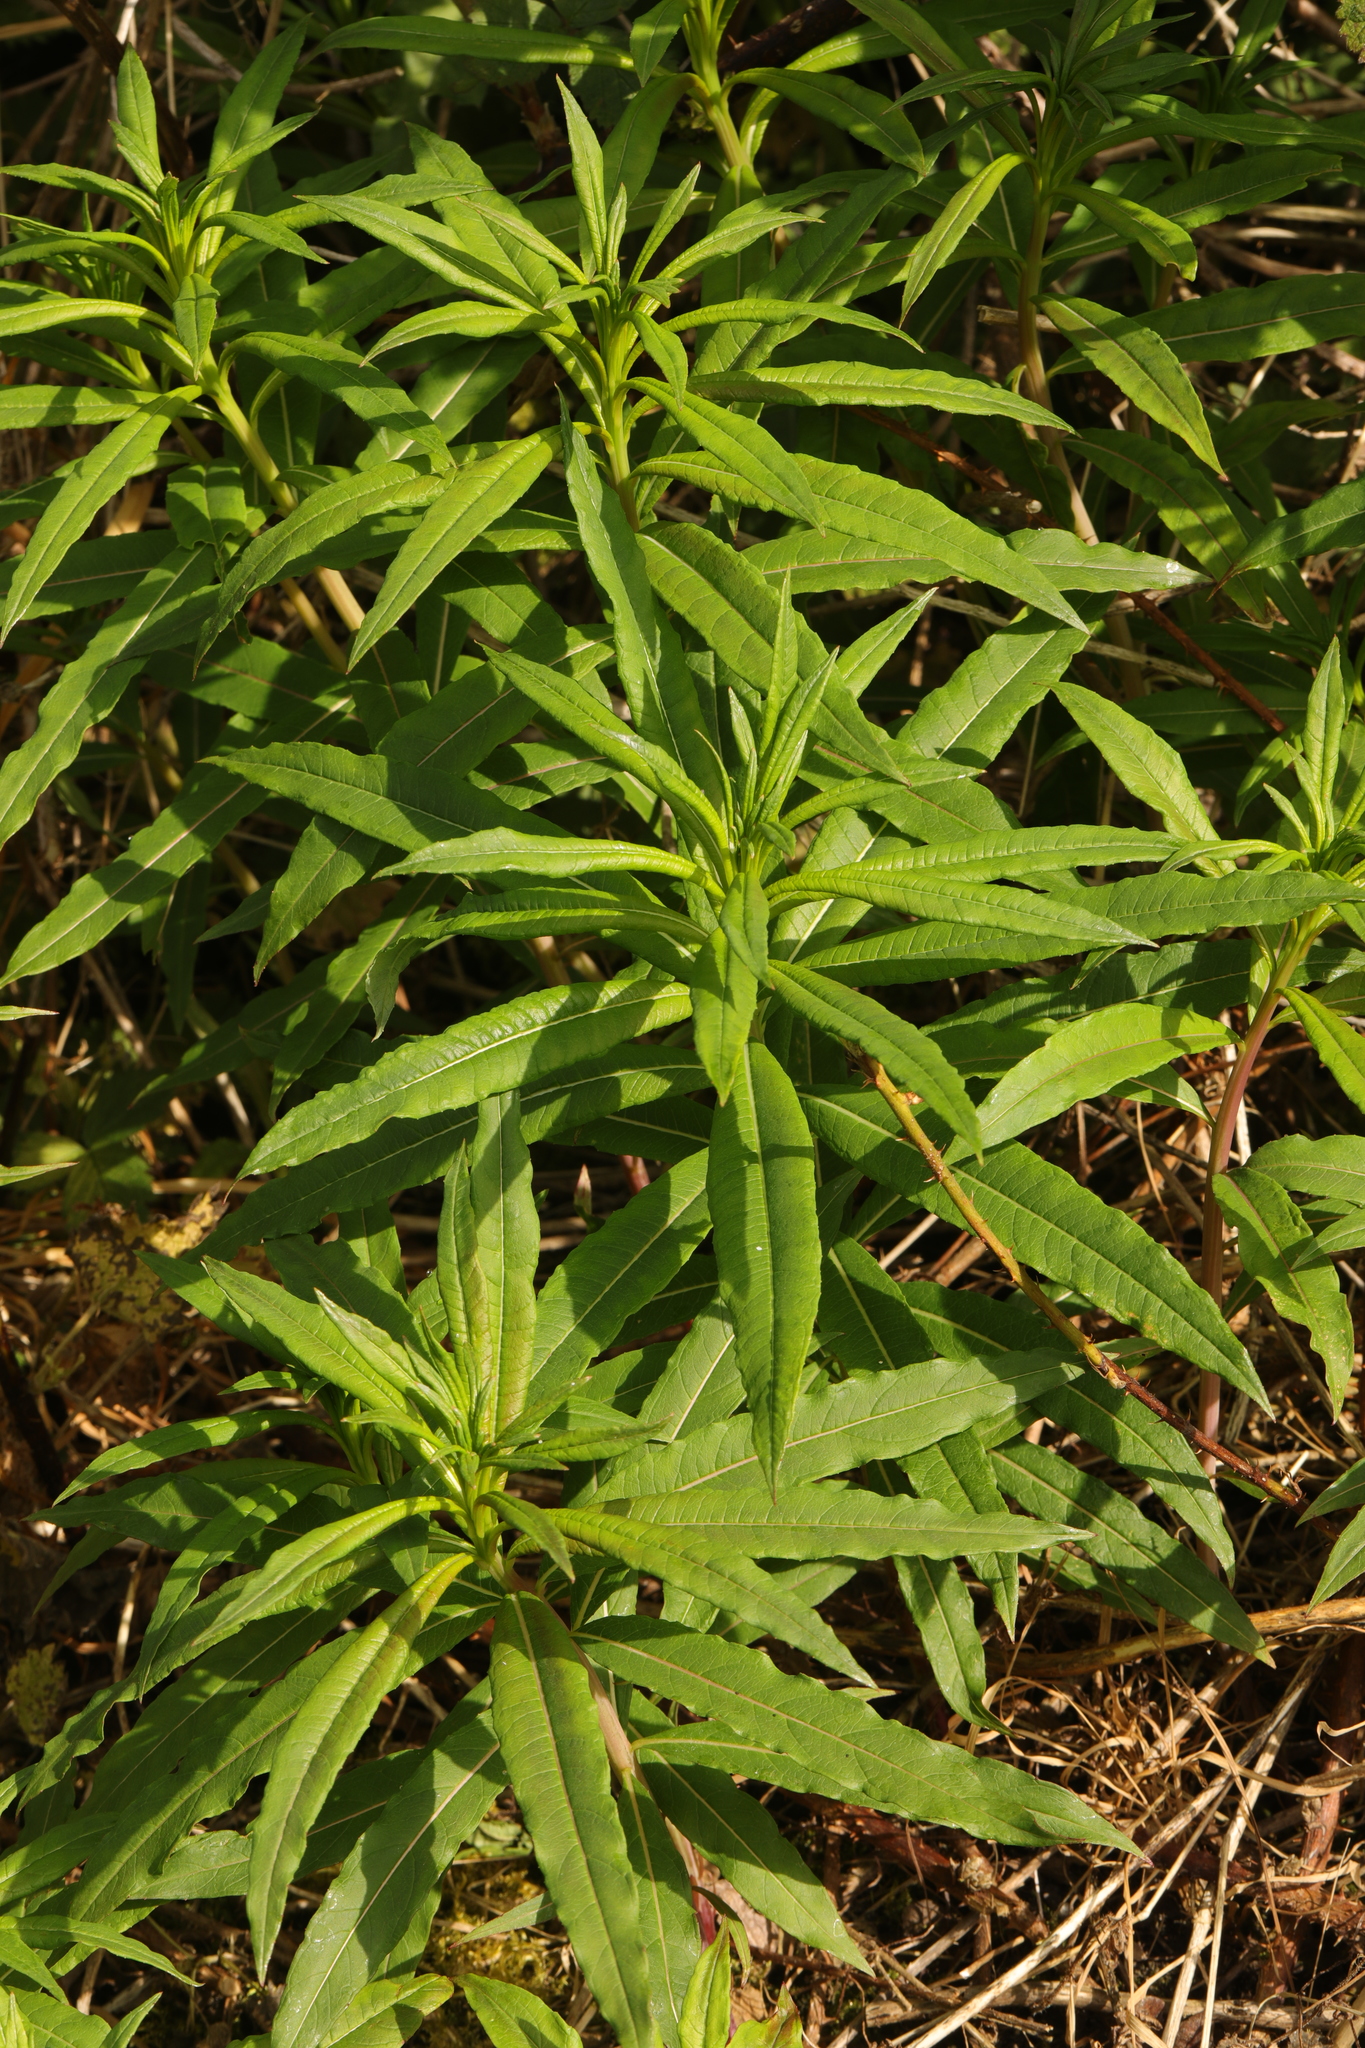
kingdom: Plantae
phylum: Tracheophyta
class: Magnoliopsida
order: Myrtales
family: Onagraceae
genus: Chamaenerion
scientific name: Chamaenerion angustifolium
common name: Fireweed
